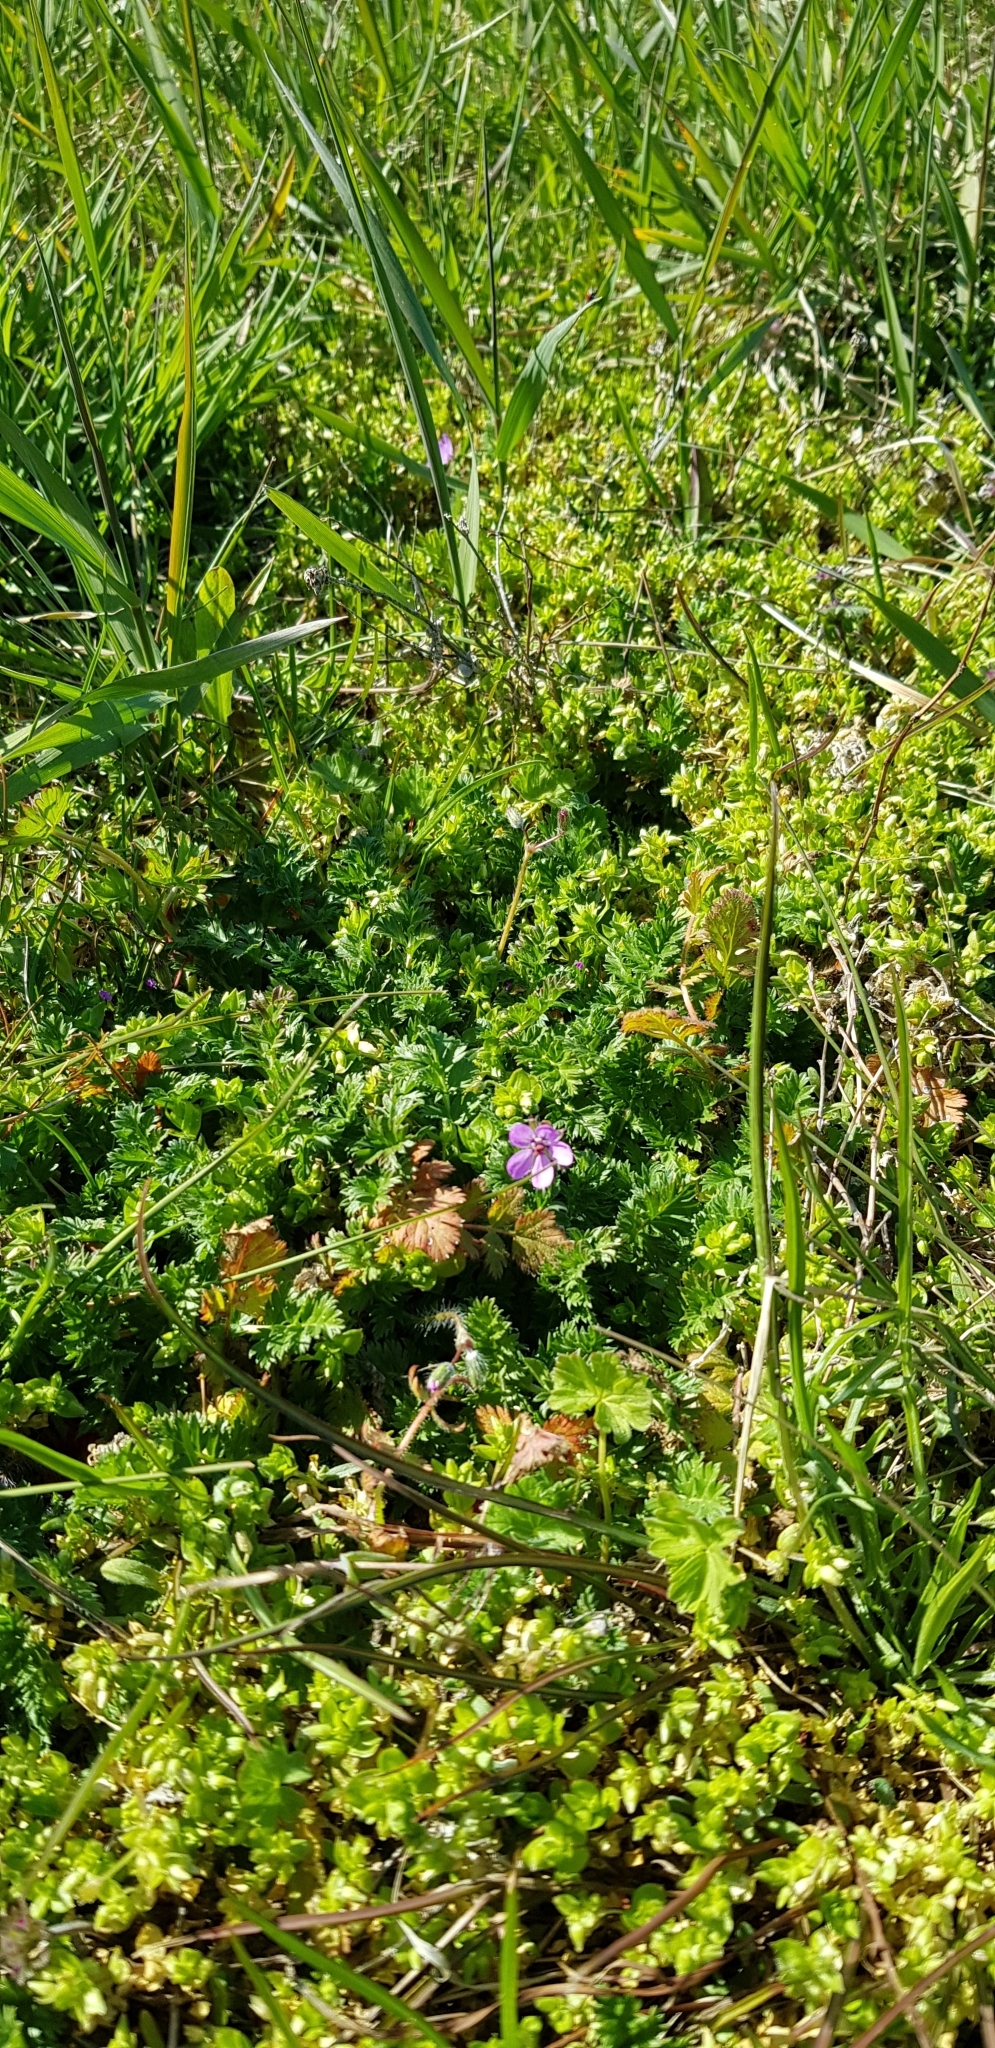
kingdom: Plantae
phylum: Tracheophyta
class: Magnoliopsida
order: Geraniales
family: Geraniaceae
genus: Erodium
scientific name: Erodium cicutarium
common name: Common stork's-bill
